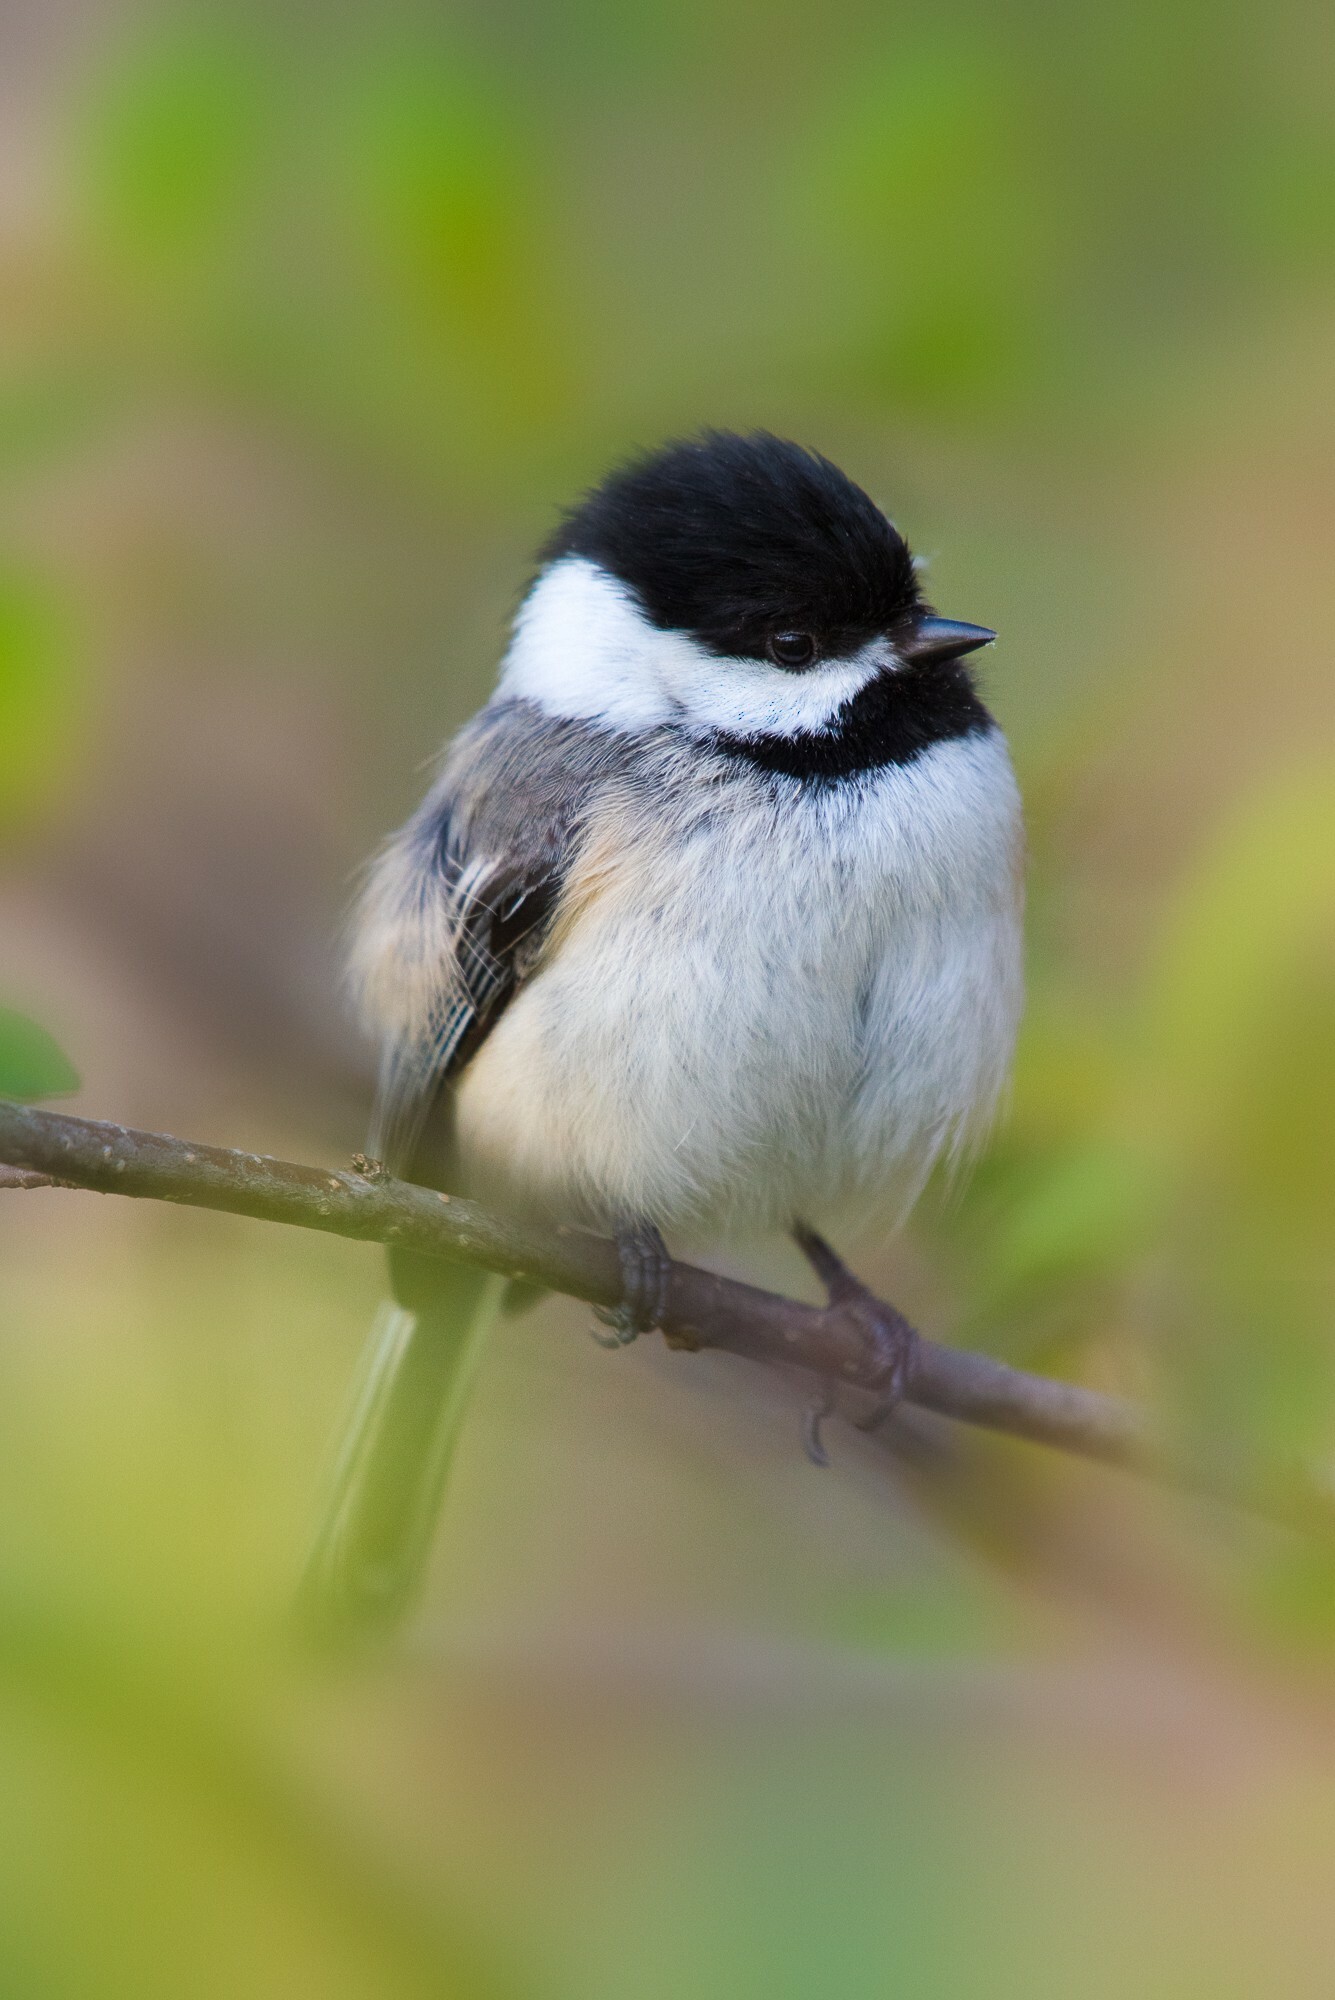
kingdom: Animalia
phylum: Chordata
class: Aves
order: Passeriformes
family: Paridae
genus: Poecile
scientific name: Poecile atricapillus
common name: Black-capped chickadee
